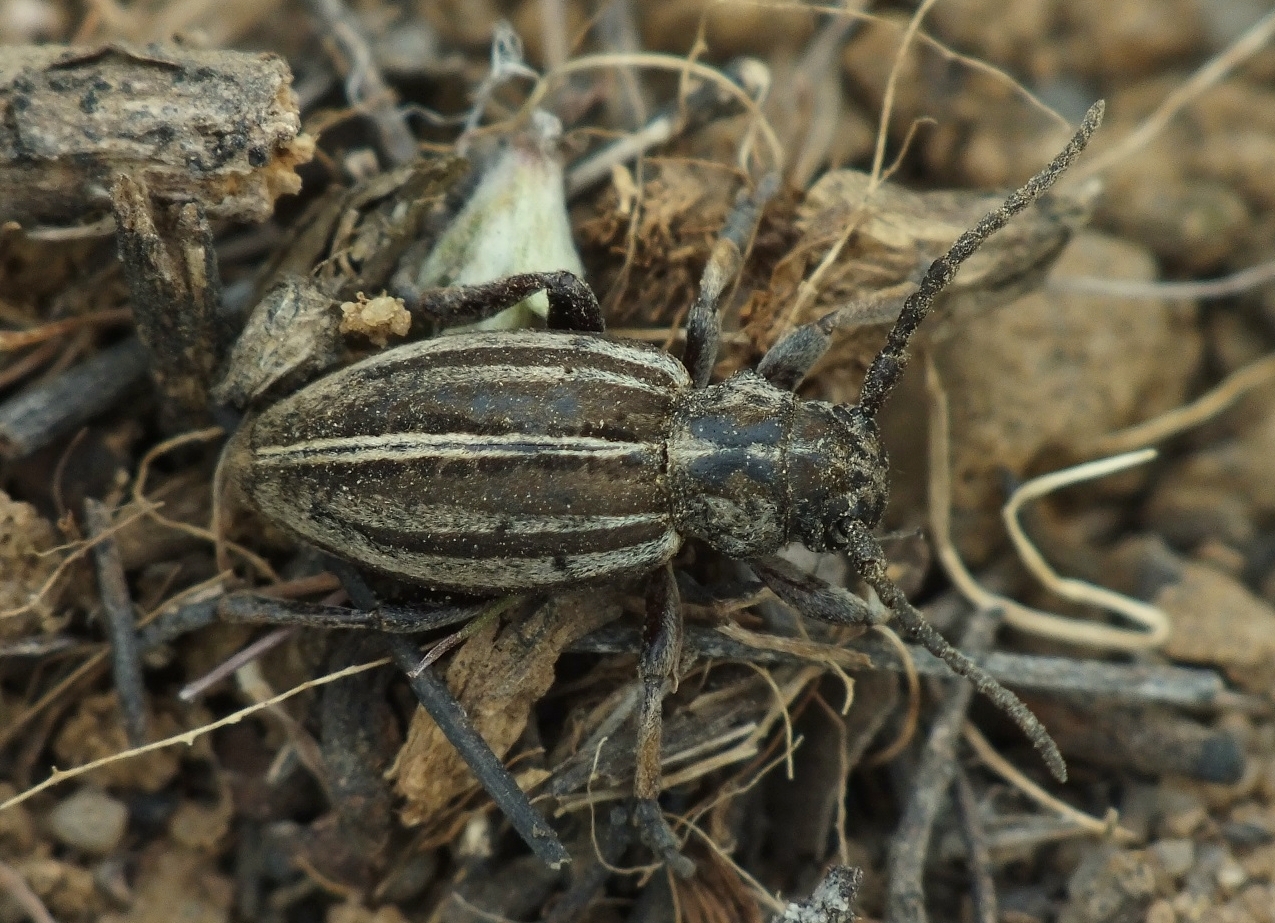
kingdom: Animalia
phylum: Arthropoda
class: Insecta
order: Coleoptera
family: Cerambycidae
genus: Dorcadion
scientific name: Dorcadion sareptanum
